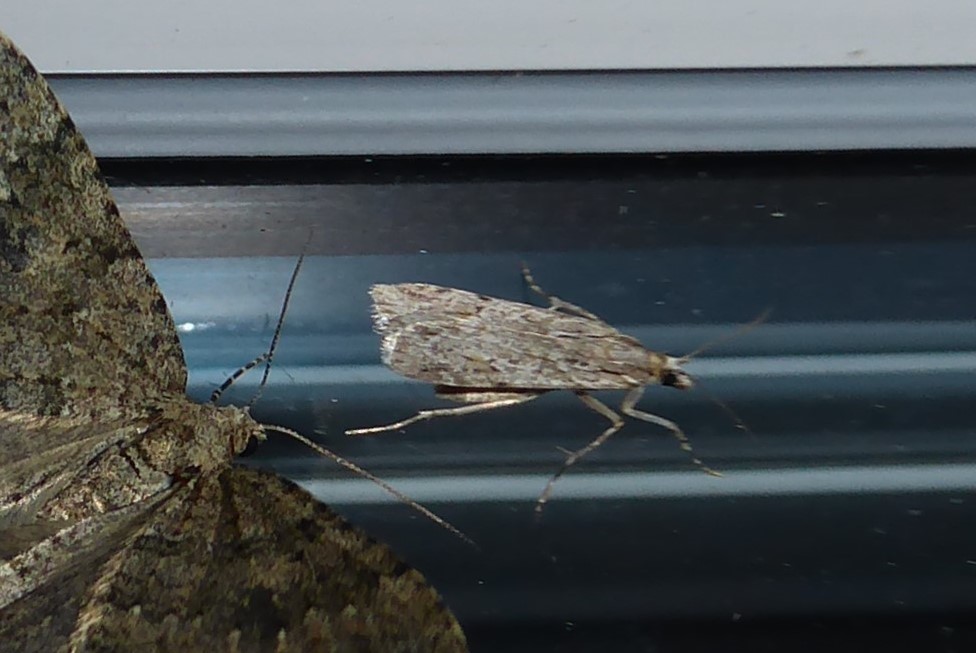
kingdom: Animalia
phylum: Arthropoda
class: Insecta
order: Lepidoptera
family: Crambidae
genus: Scoparia
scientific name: Scoparia chalicodes
